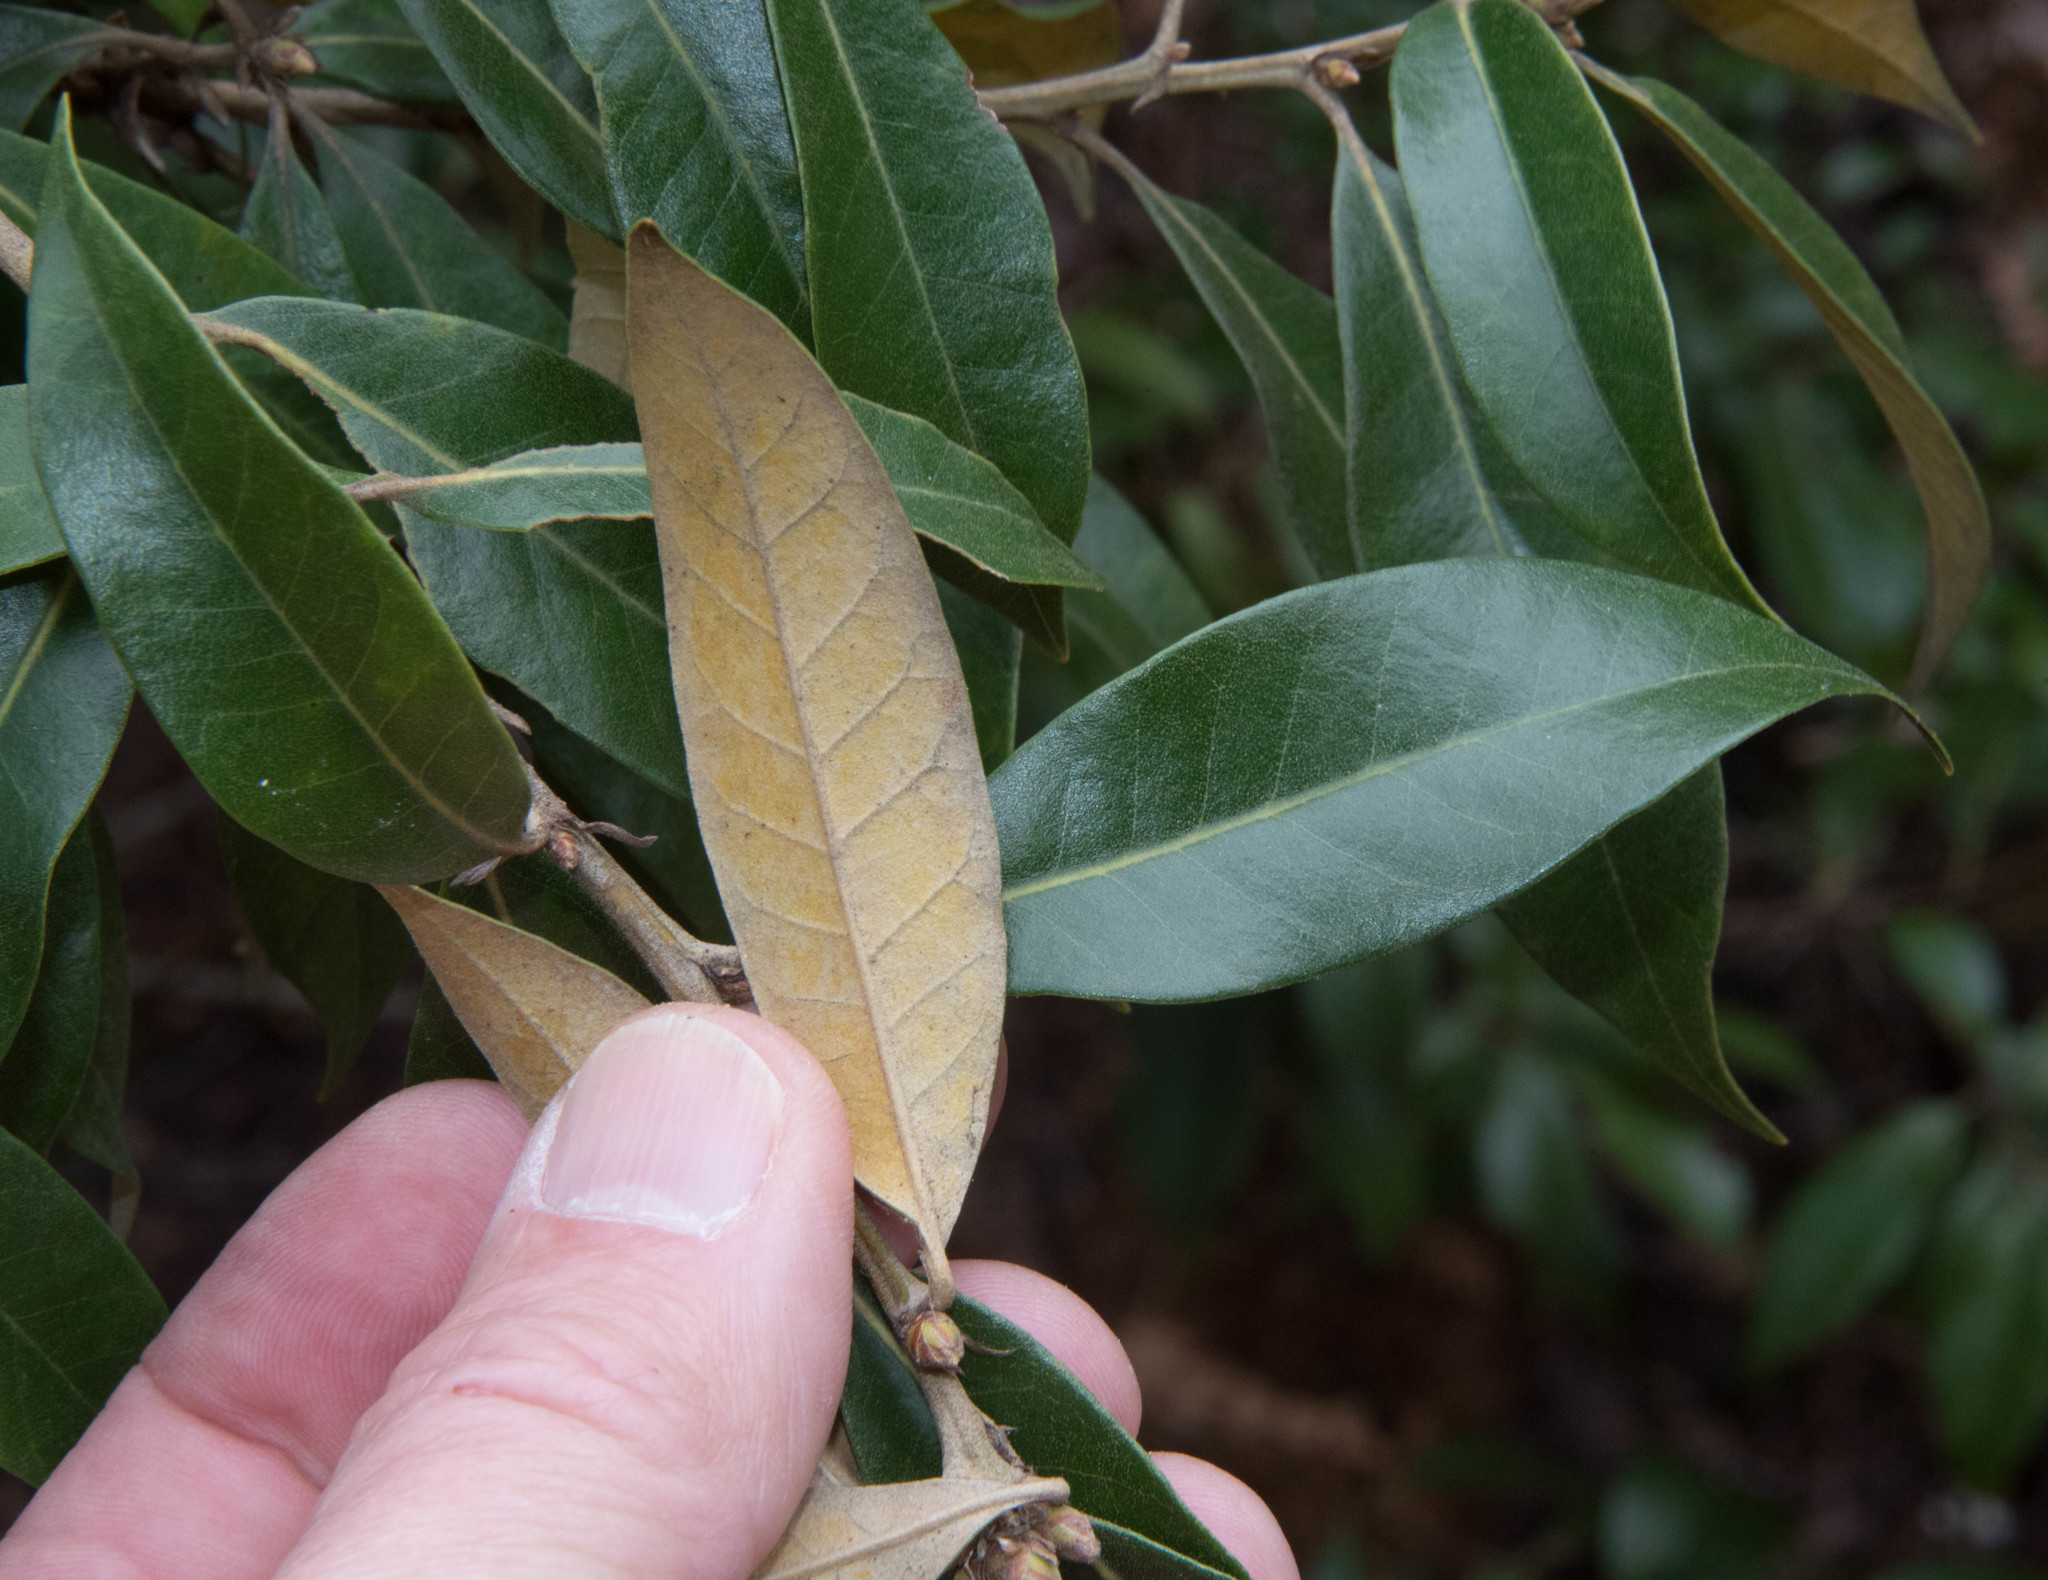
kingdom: Plantae
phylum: Tracheophyta
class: Magnoliopsida
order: Fagales
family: Fagaceae
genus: Chrysolepis
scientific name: Chrysolepis chrysophylla
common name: Giant chinquapin
